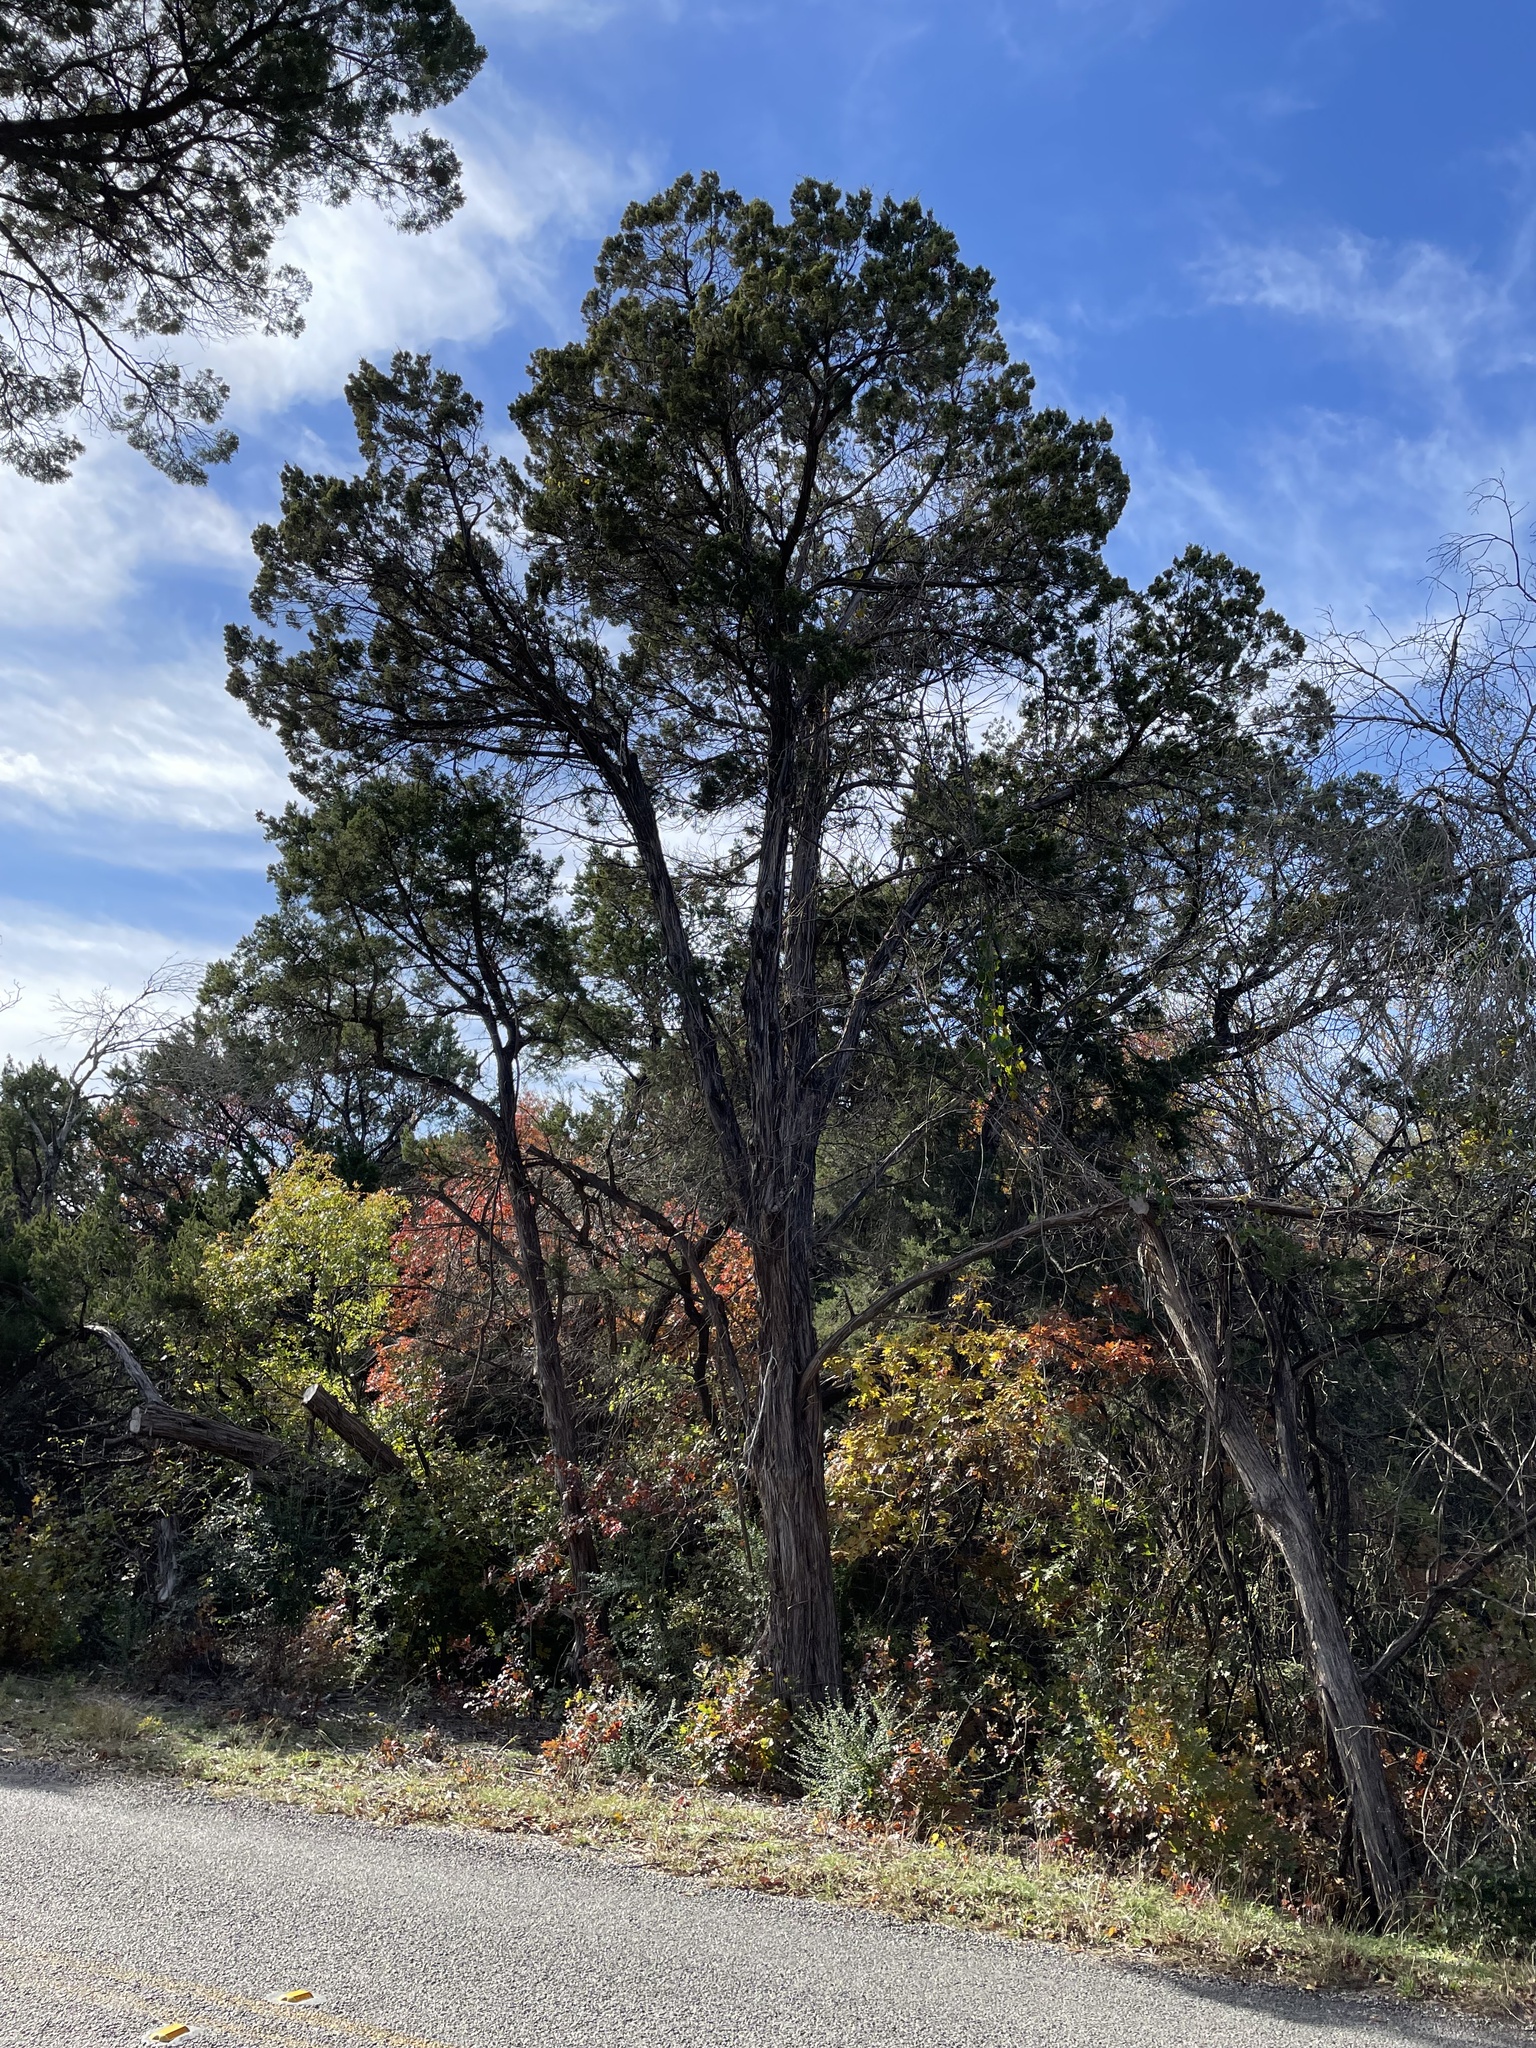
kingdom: Plantae
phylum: Tracheophyta
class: Pinopsida
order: Pinales
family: Cupressaceae
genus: Juniperus
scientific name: Juniperus ashei
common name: Mexican juniper
